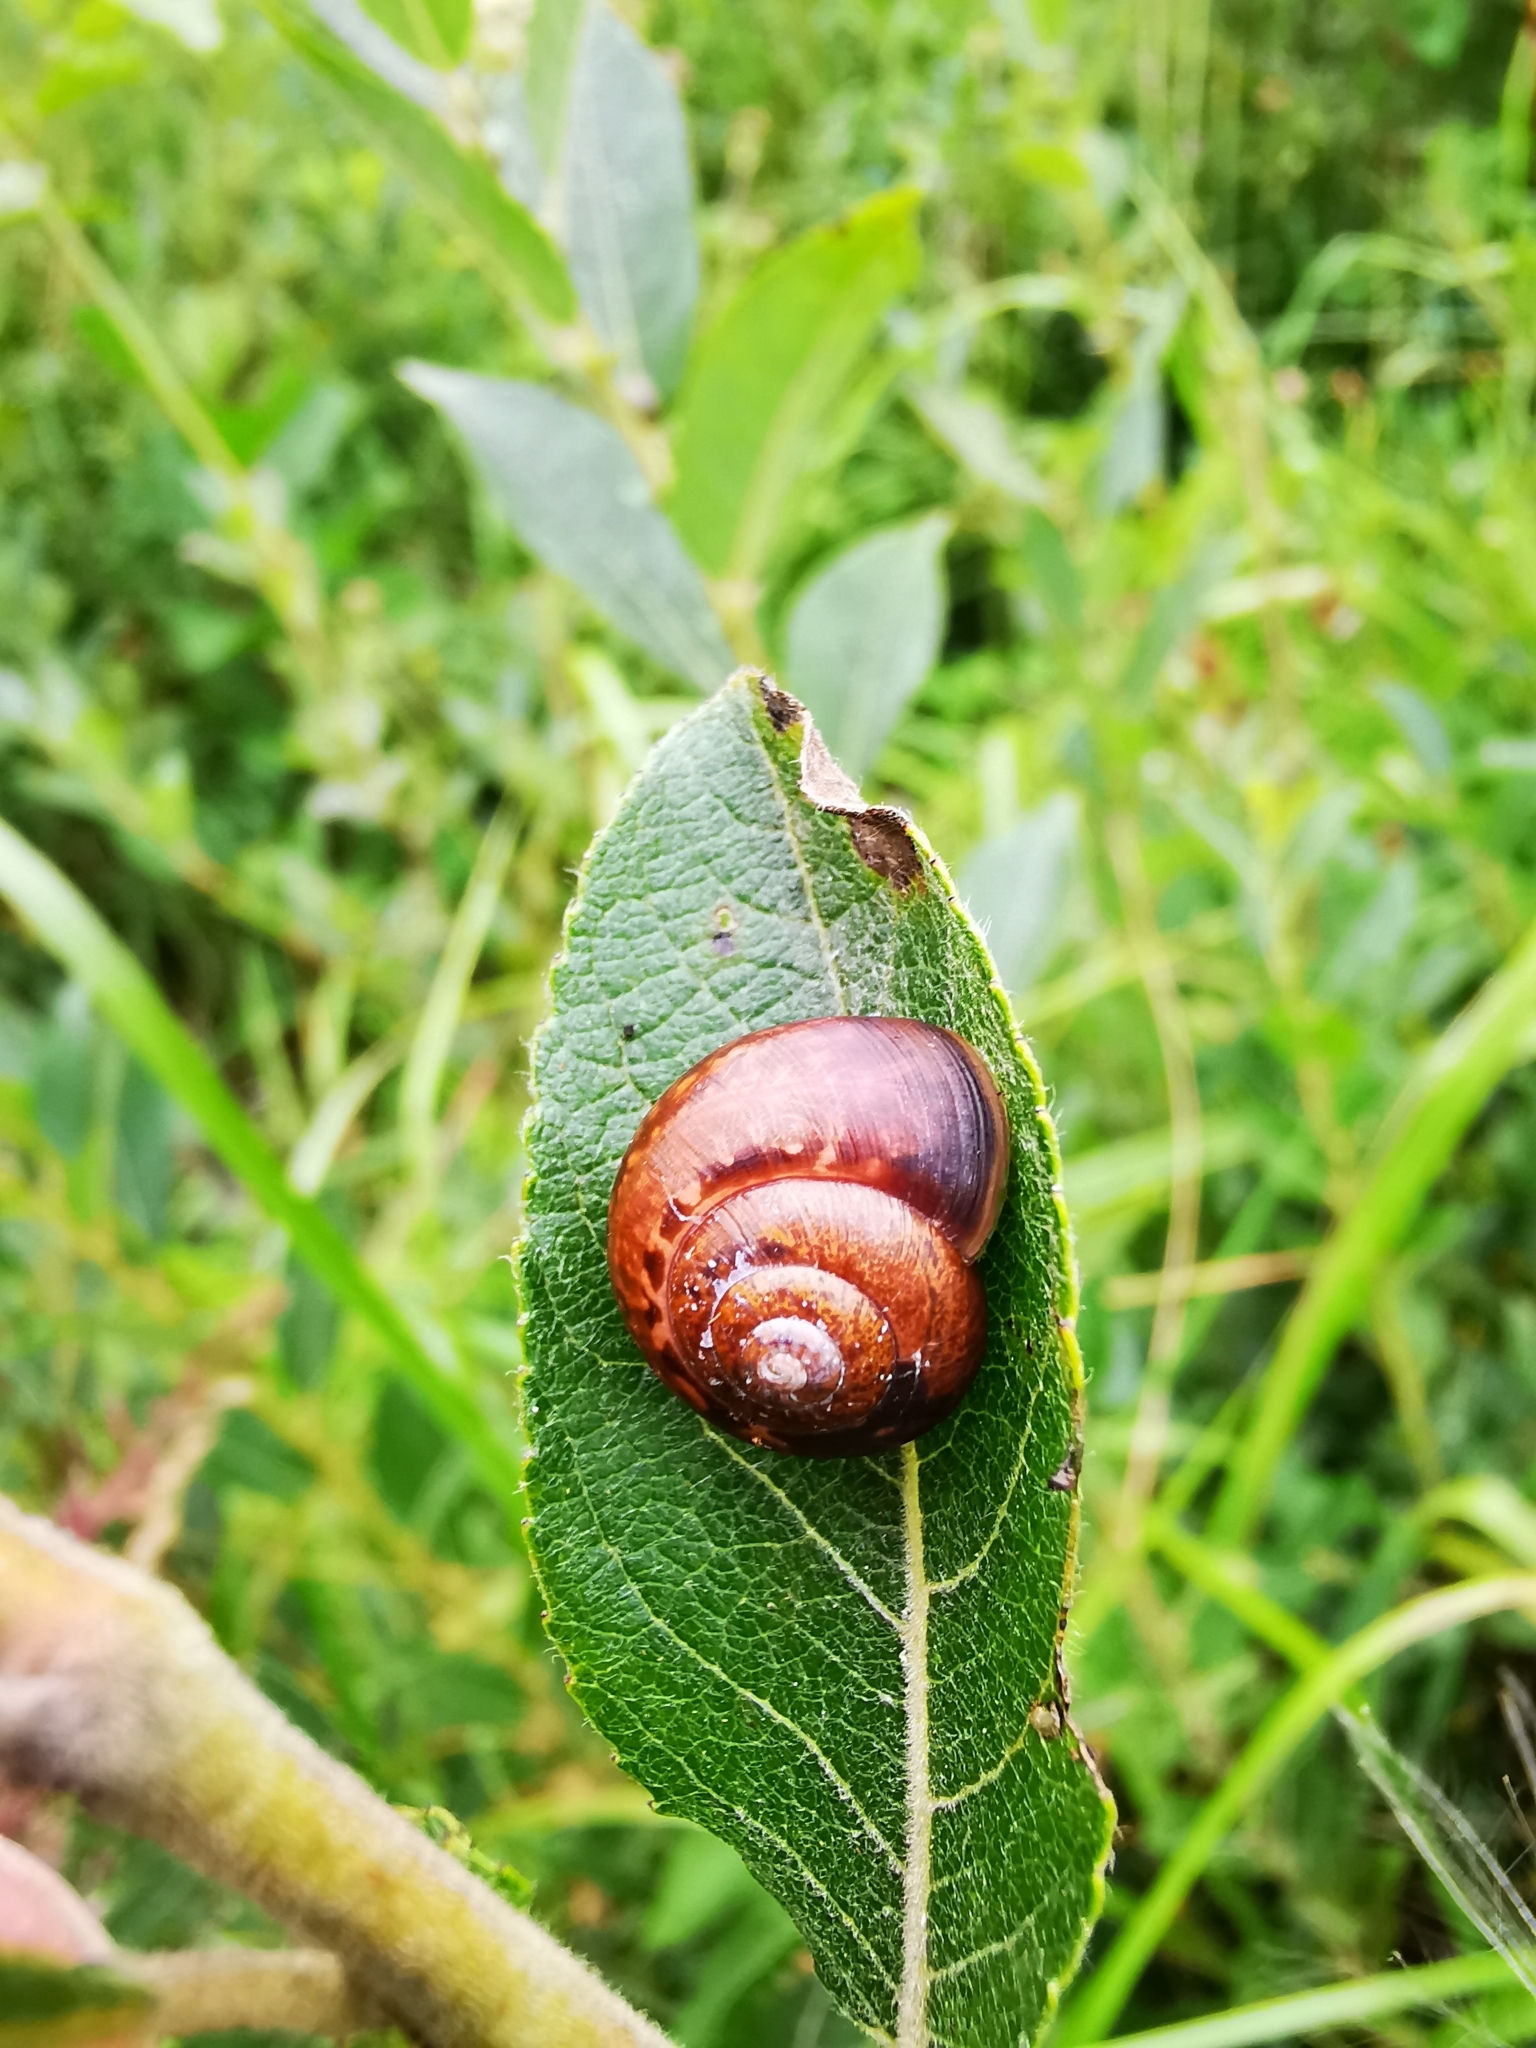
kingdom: Animalia
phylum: Mollusca
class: Gastropoda
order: Stylommatophora
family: Helicidae
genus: Arianta
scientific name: Arianta arbustorum
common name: Copse snail
